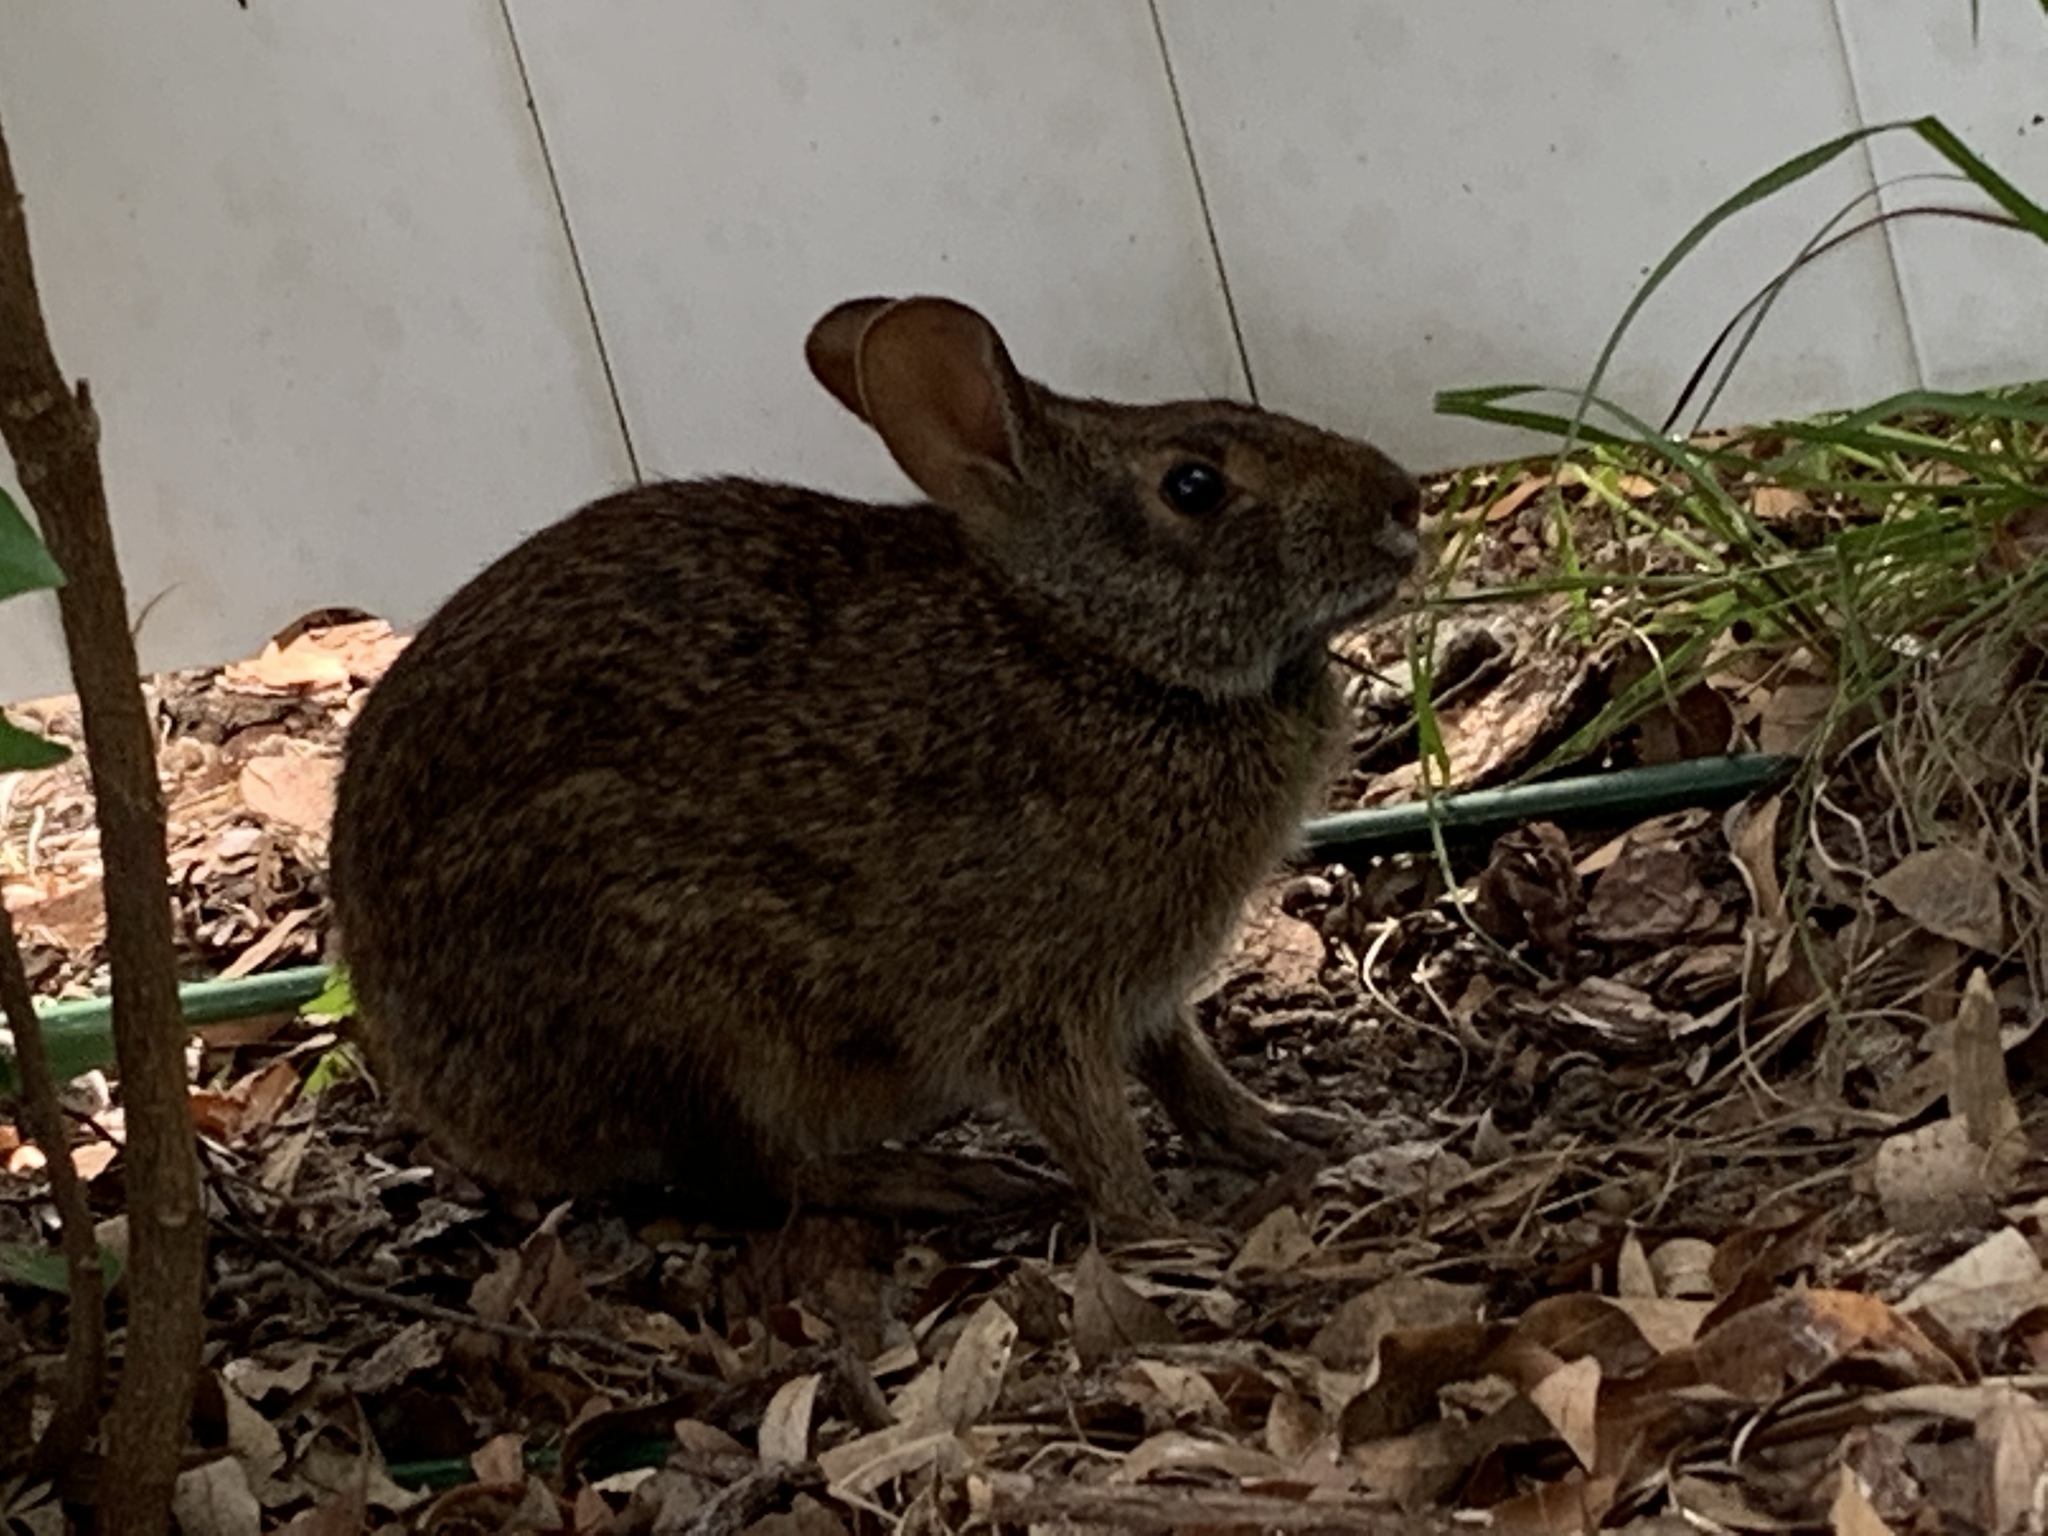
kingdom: Animalia
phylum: Chordata
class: Mammalia
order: Lagomorpha
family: Leporidae
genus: Sylvilagus
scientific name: Sylvilagus palustris
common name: Marsh rabbit
